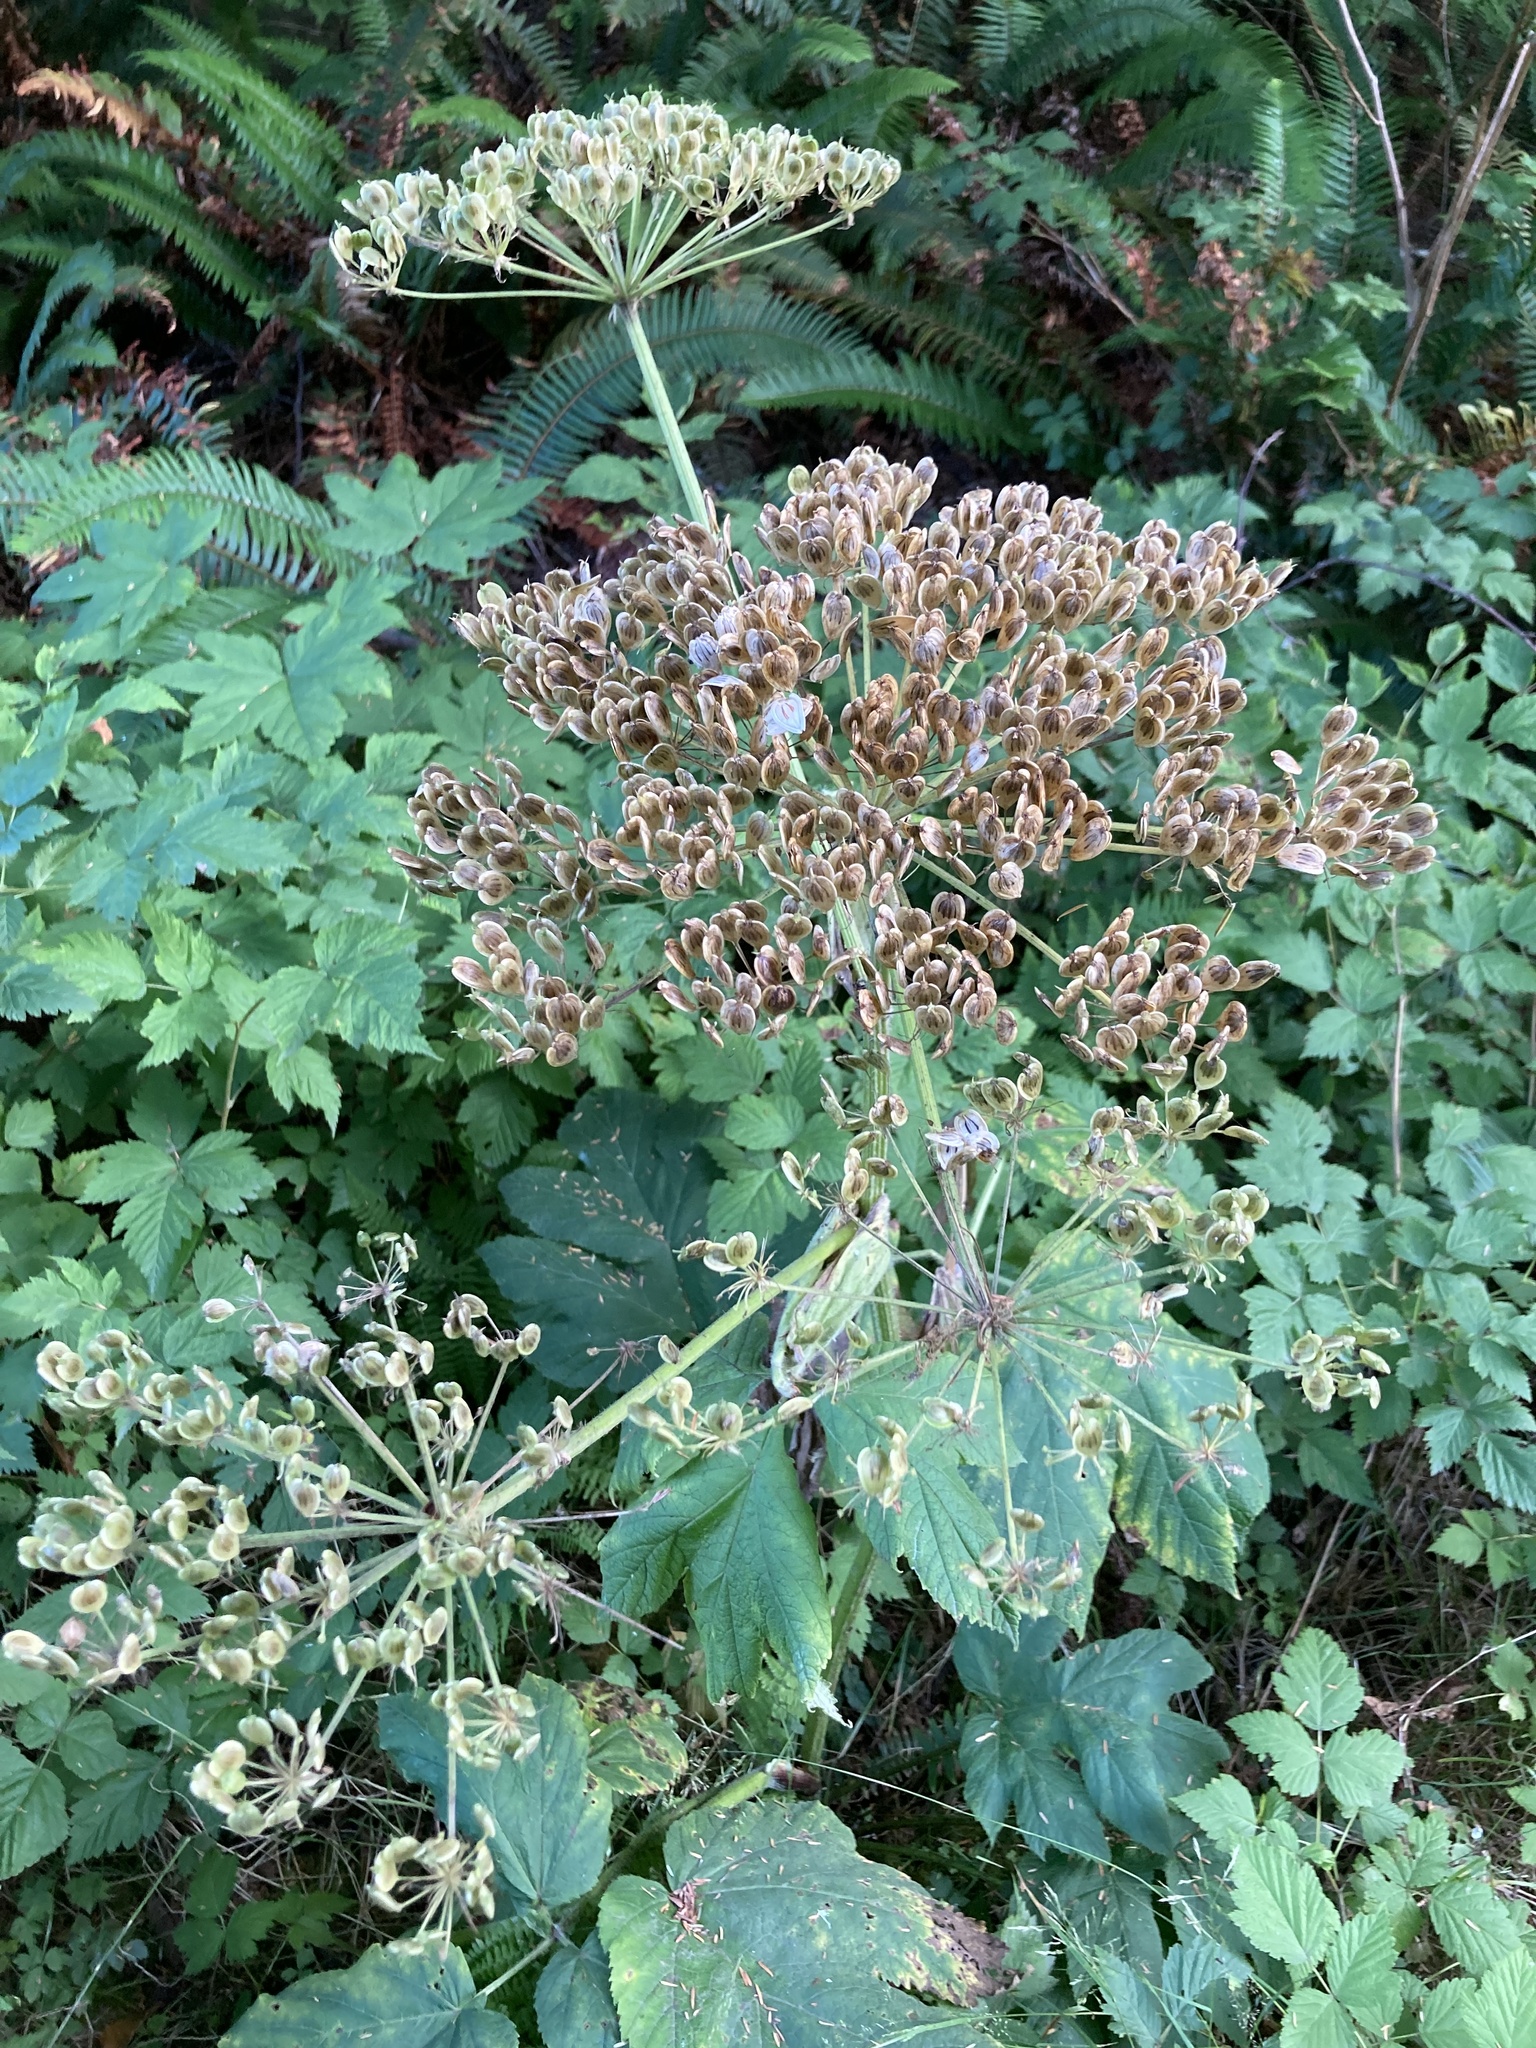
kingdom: Plantae
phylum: Tracheophyta
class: Magnoliopsida
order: Apiales
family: Apiaceae
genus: Heracleum
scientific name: Heracleum maximum
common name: American cow parsnip
